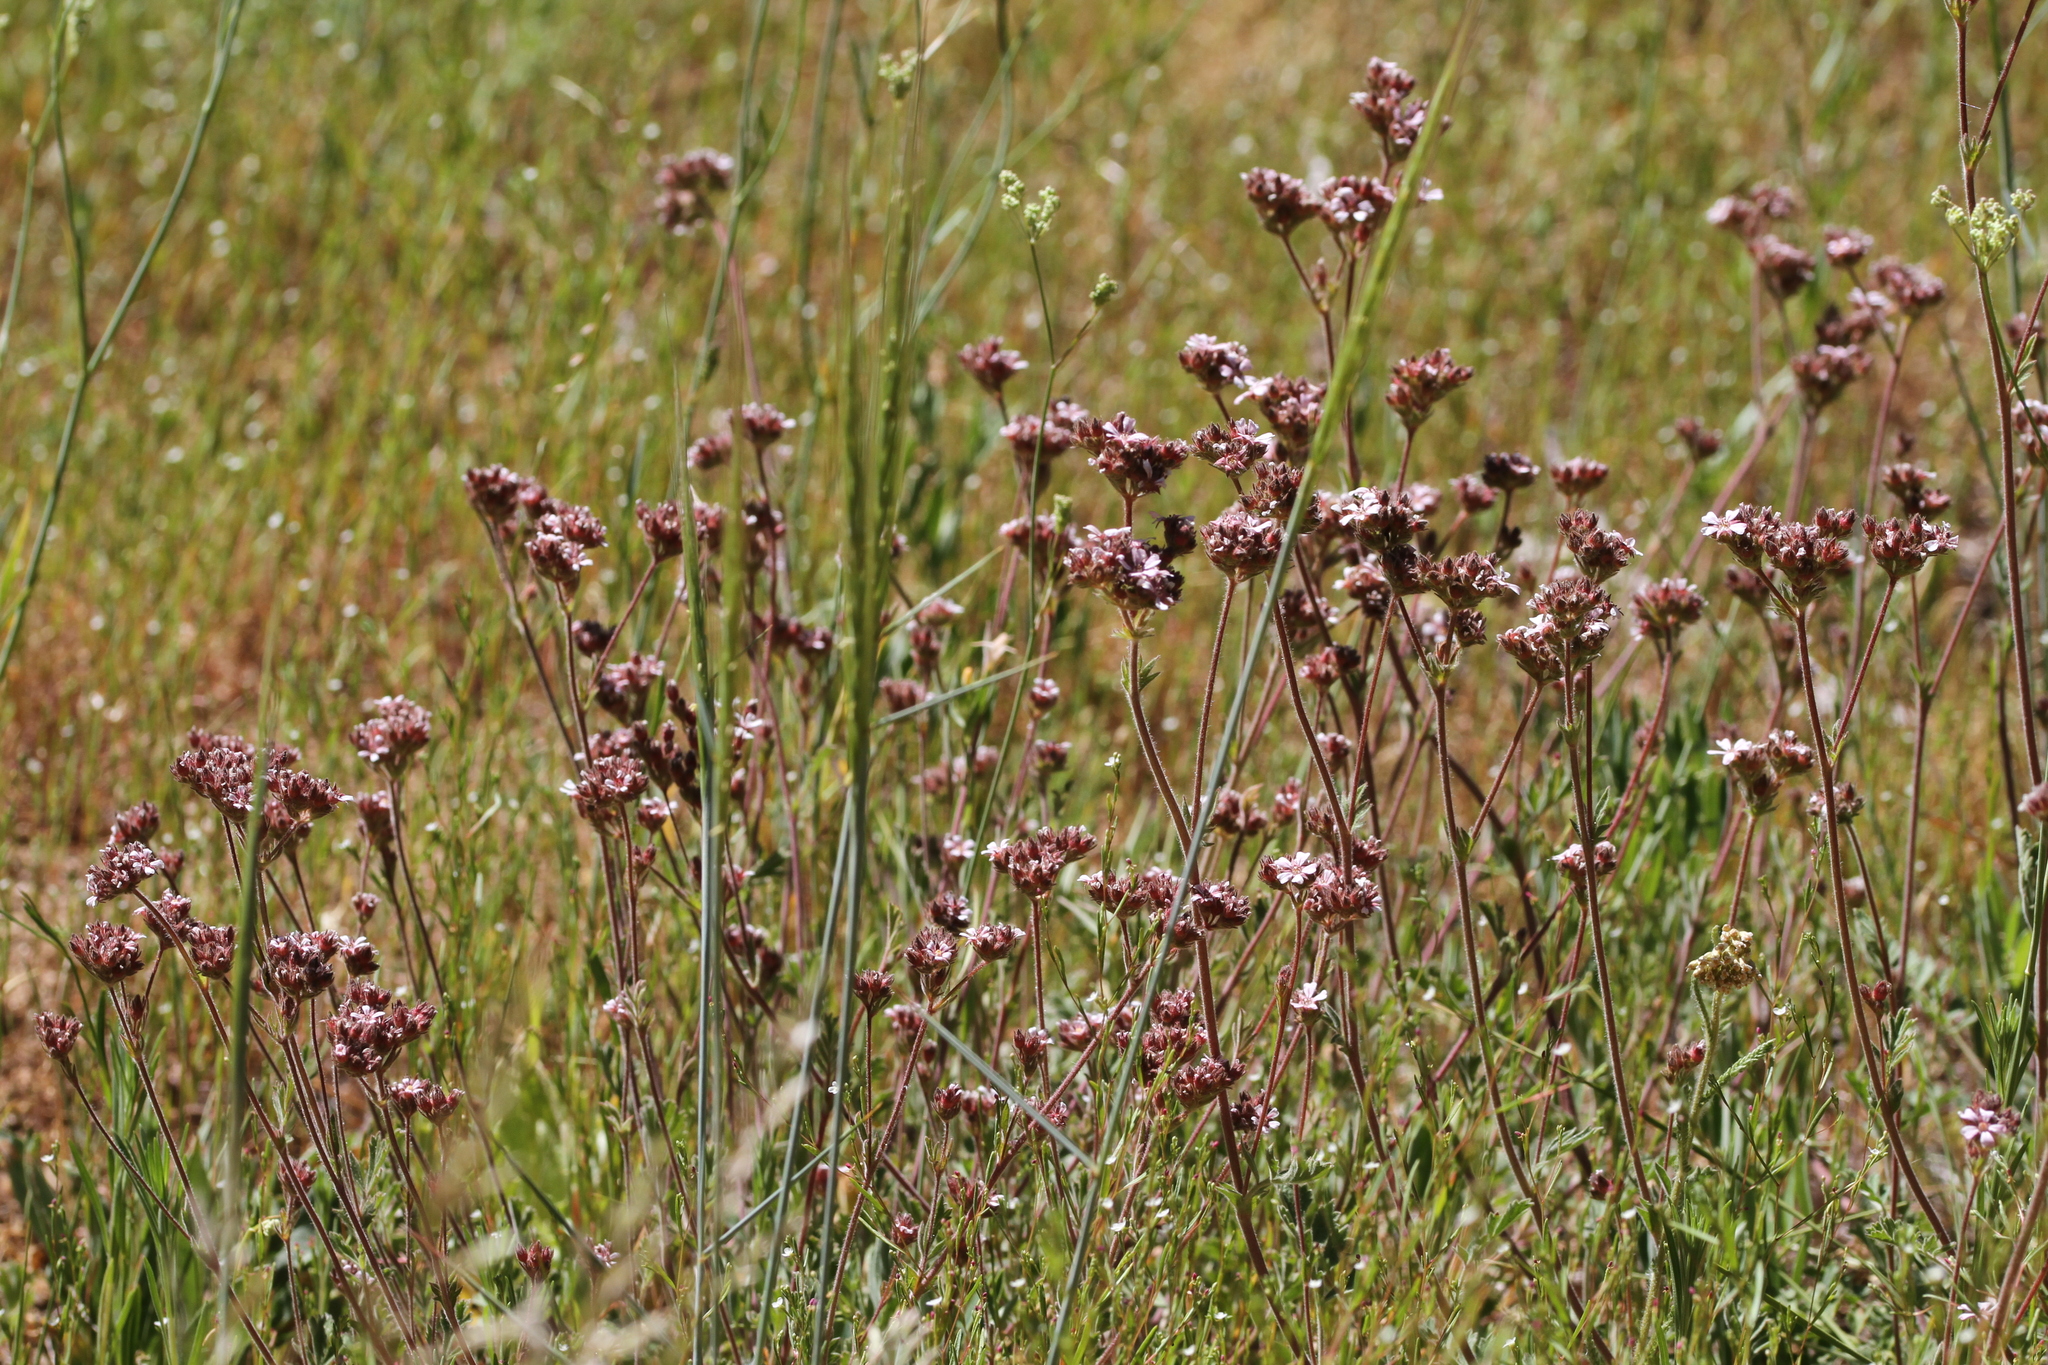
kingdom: Plantae
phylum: Tracheophyta
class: Magnoliopsida
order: Rosales
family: Rosaceae
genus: Potentilla
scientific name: Potentilla douglasii
